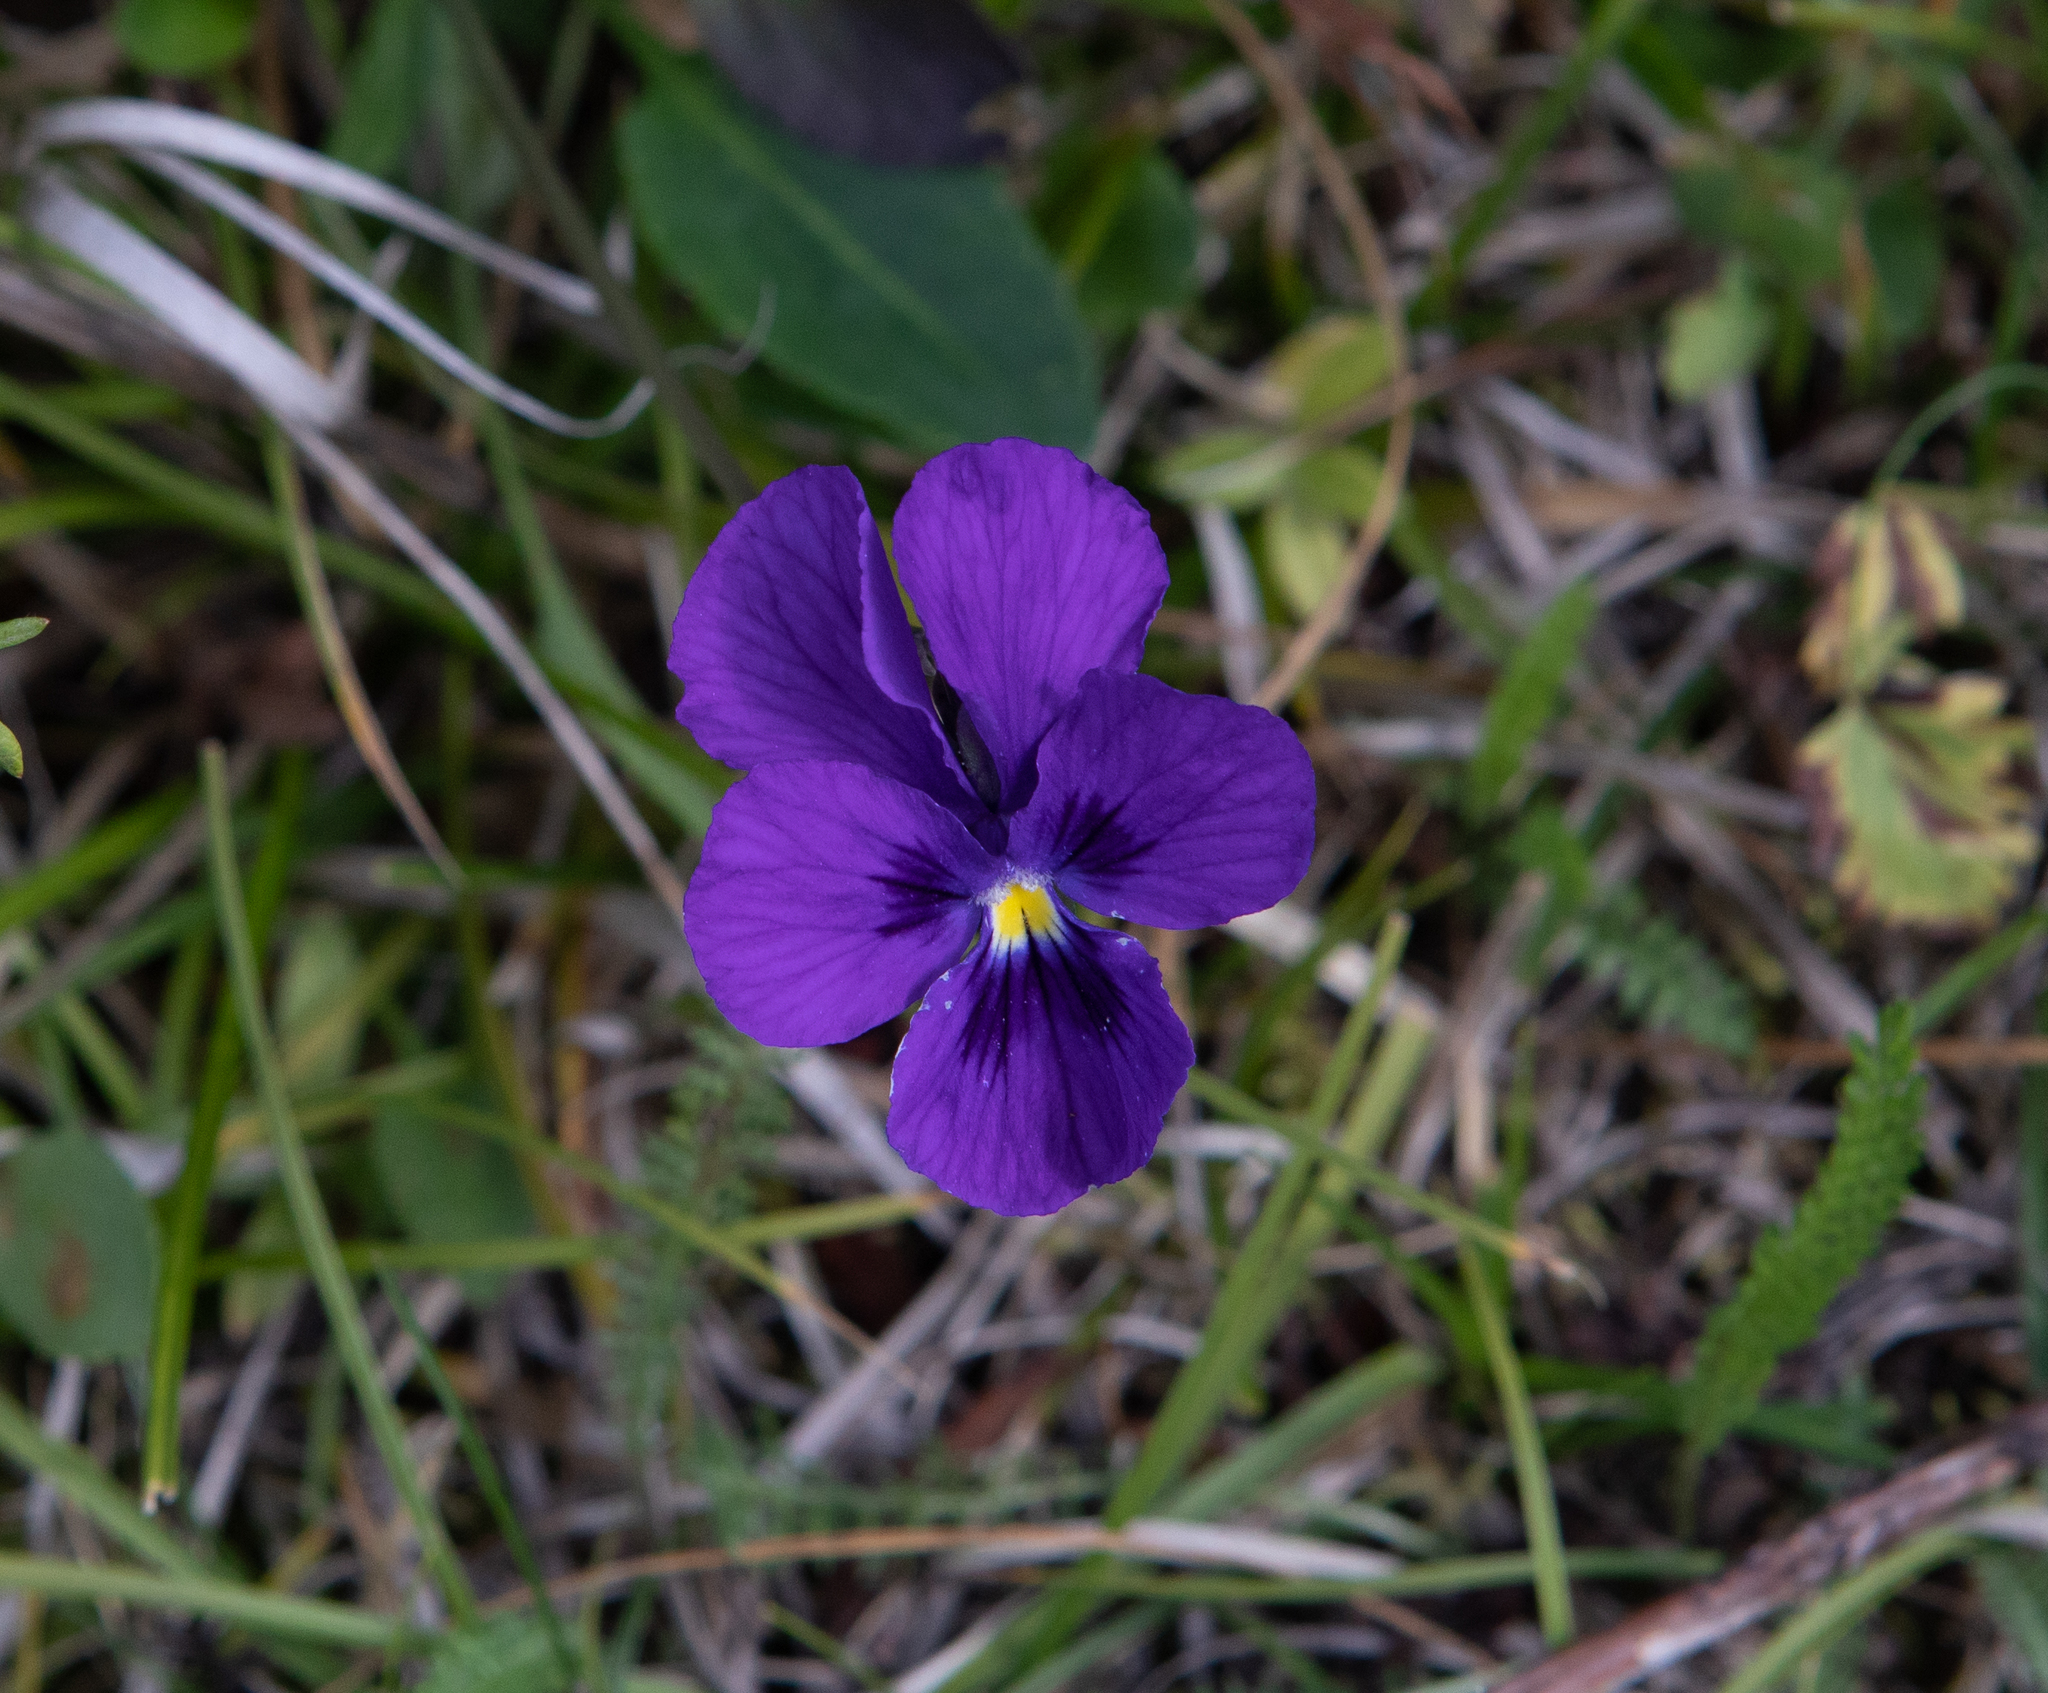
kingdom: Plantae
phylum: Tracheophyta
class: Magnoliopsida
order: Malpighiales
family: Violaceae
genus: Viola
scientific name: Viola altaica
